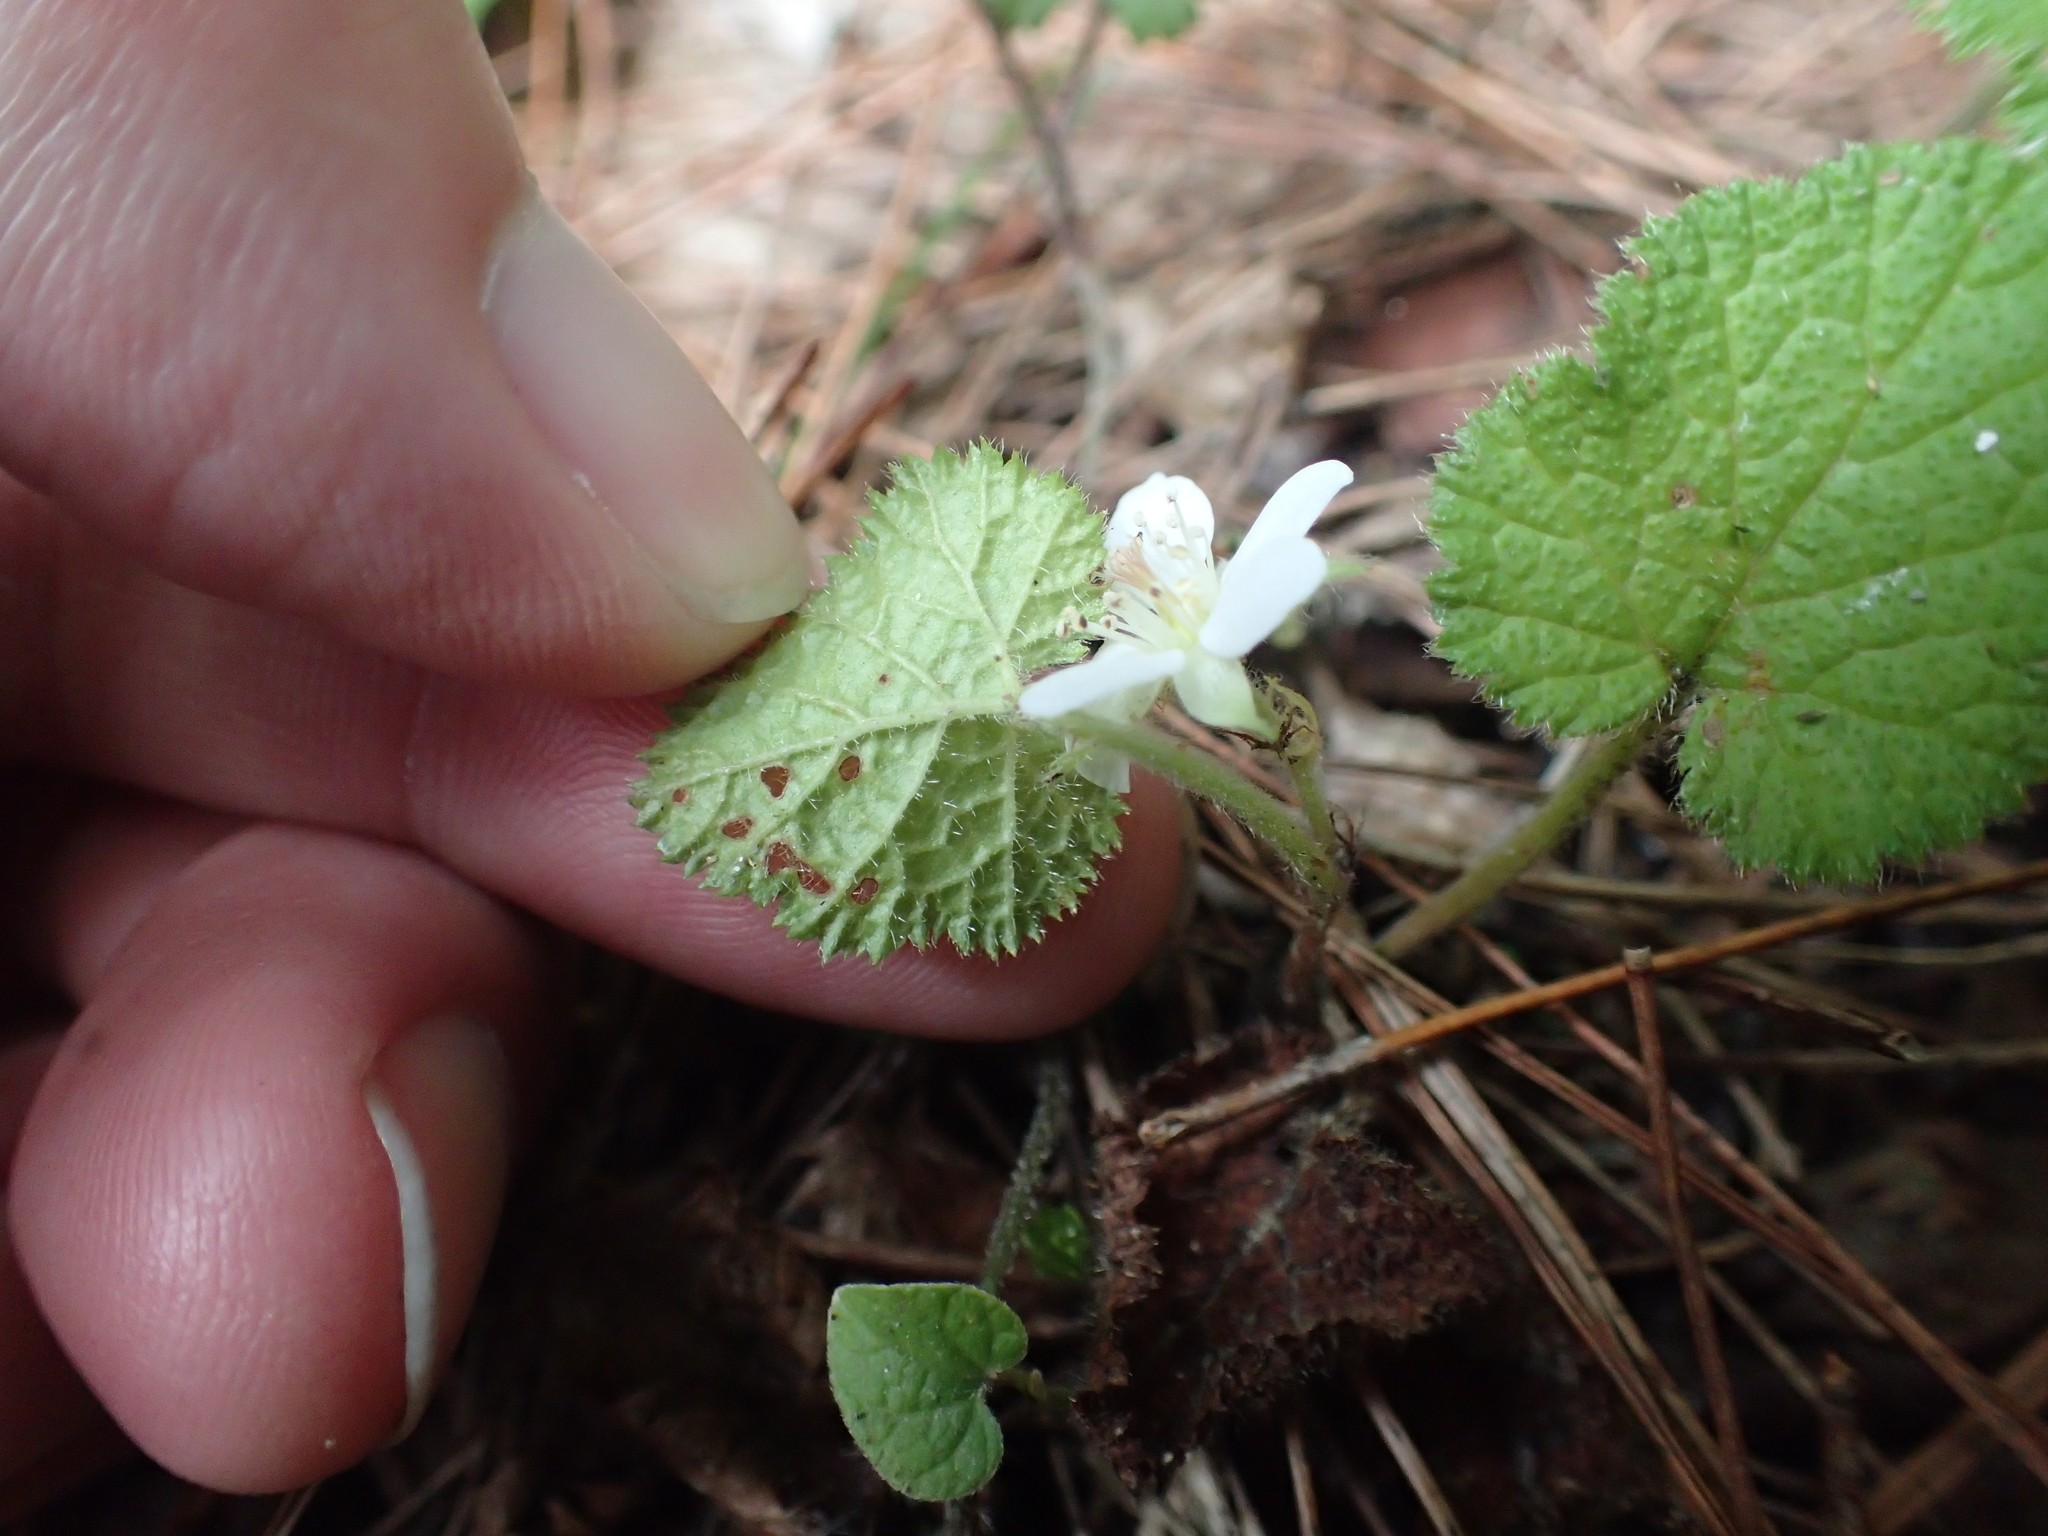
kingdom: Plantae
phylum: Tracheophyta
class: Magnoliopsida
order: Rosales
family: Rosaceae
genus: Rubus
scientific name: Rubus pectinellus
